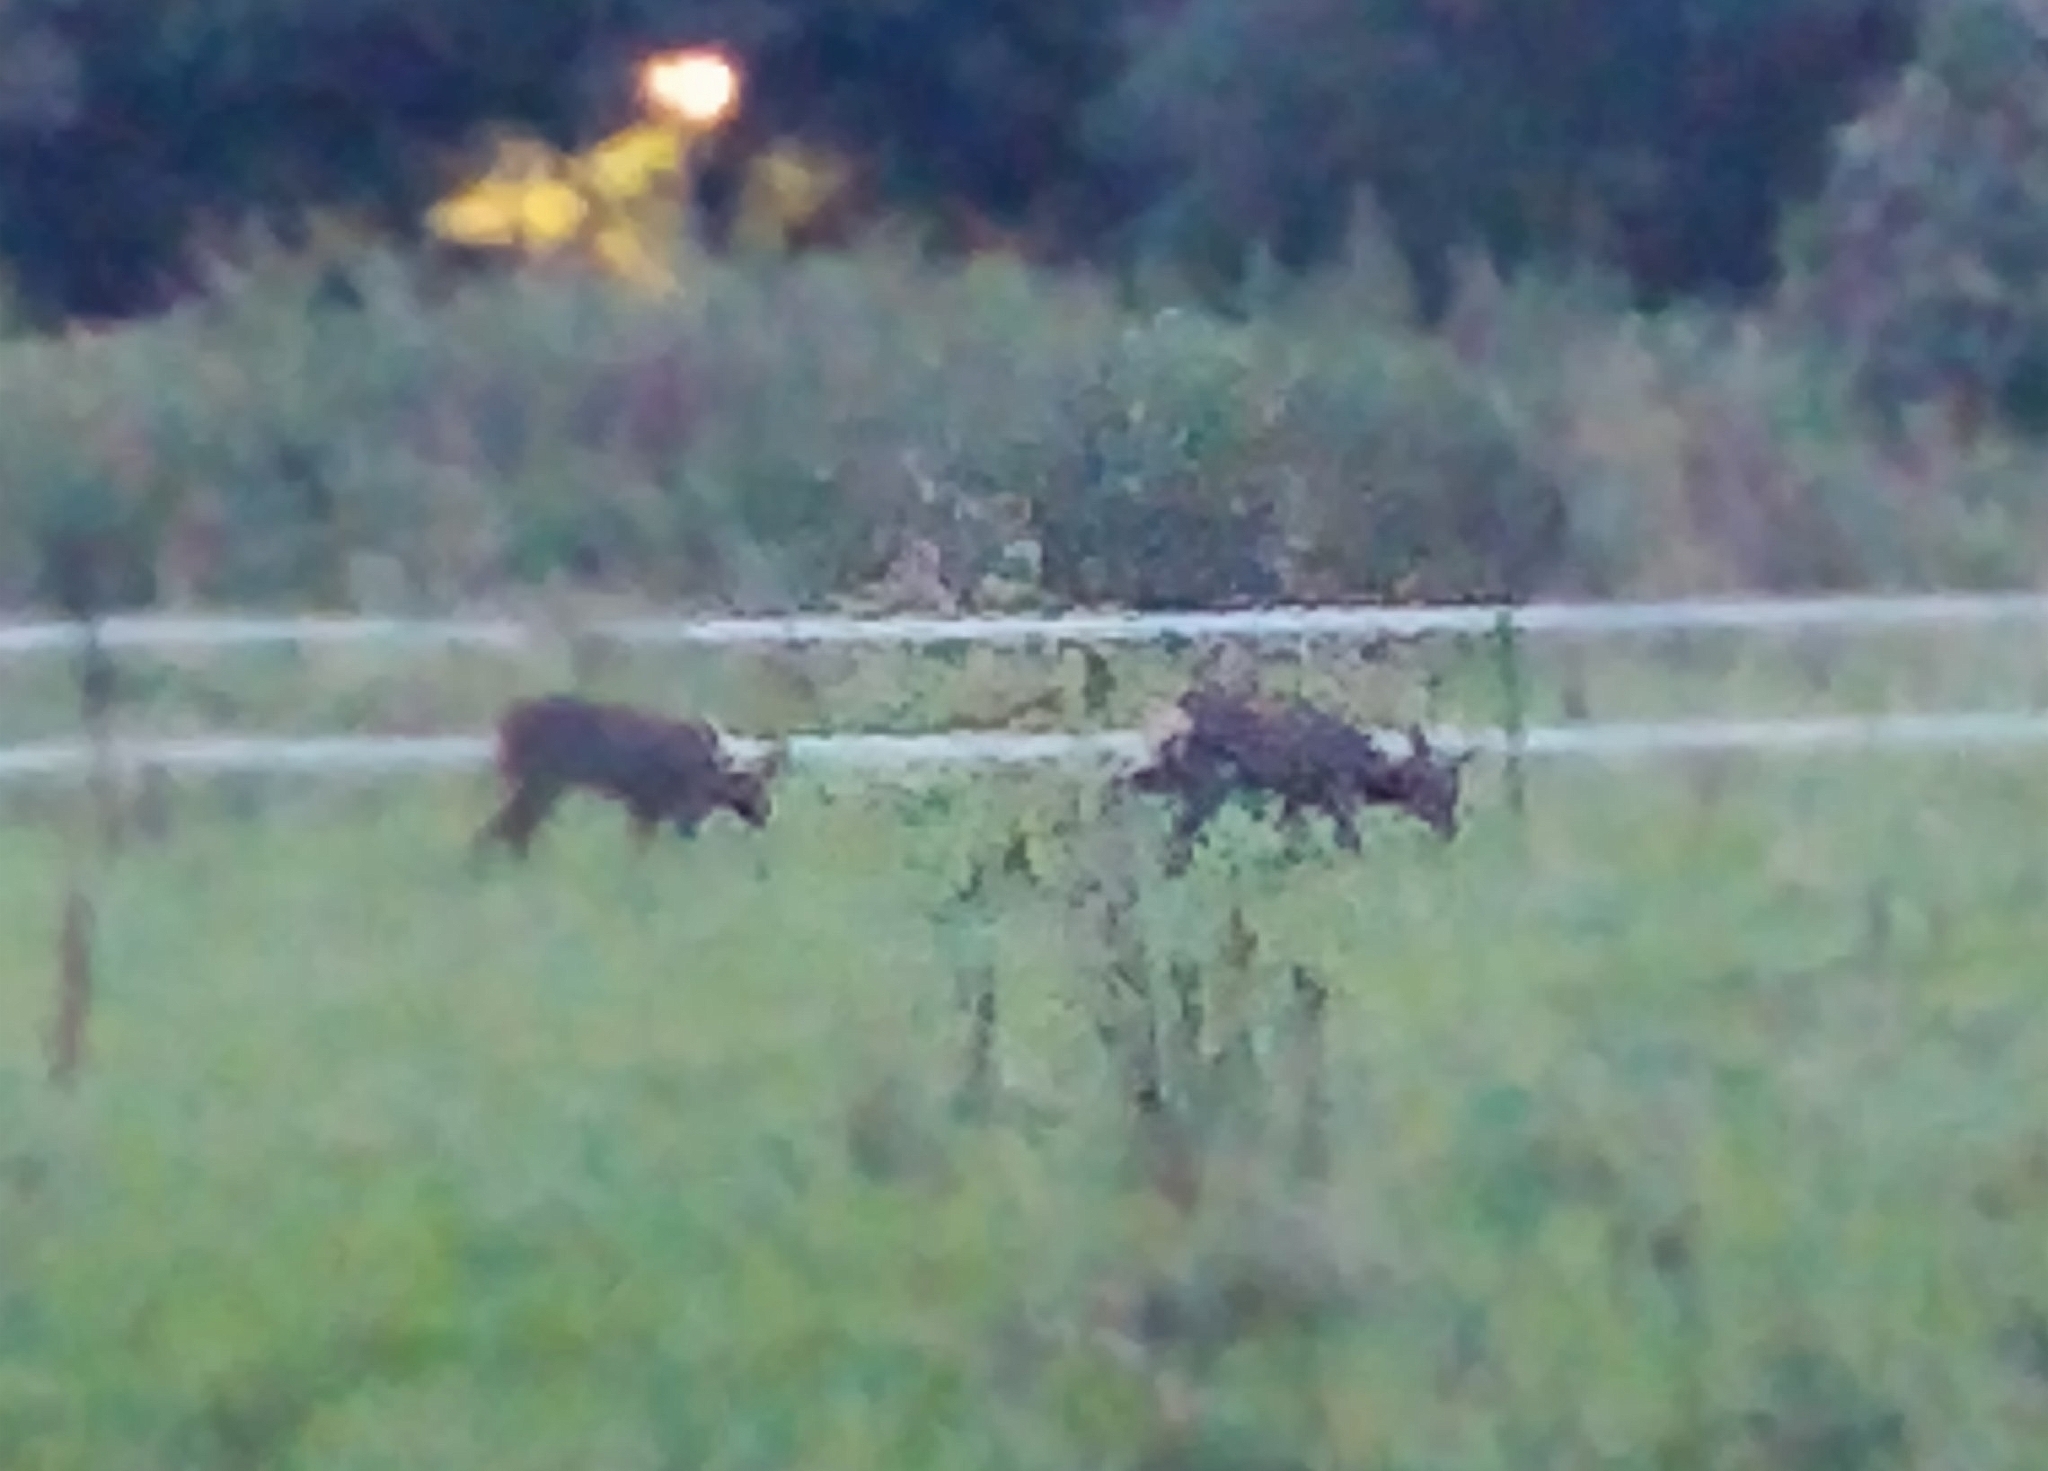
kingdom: Animalia
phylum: Chordata
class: Mammalia
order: Artiodactyla
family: Cervidae
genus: Capreolus
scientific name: Capreolus capreolus
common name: Western roe deer
